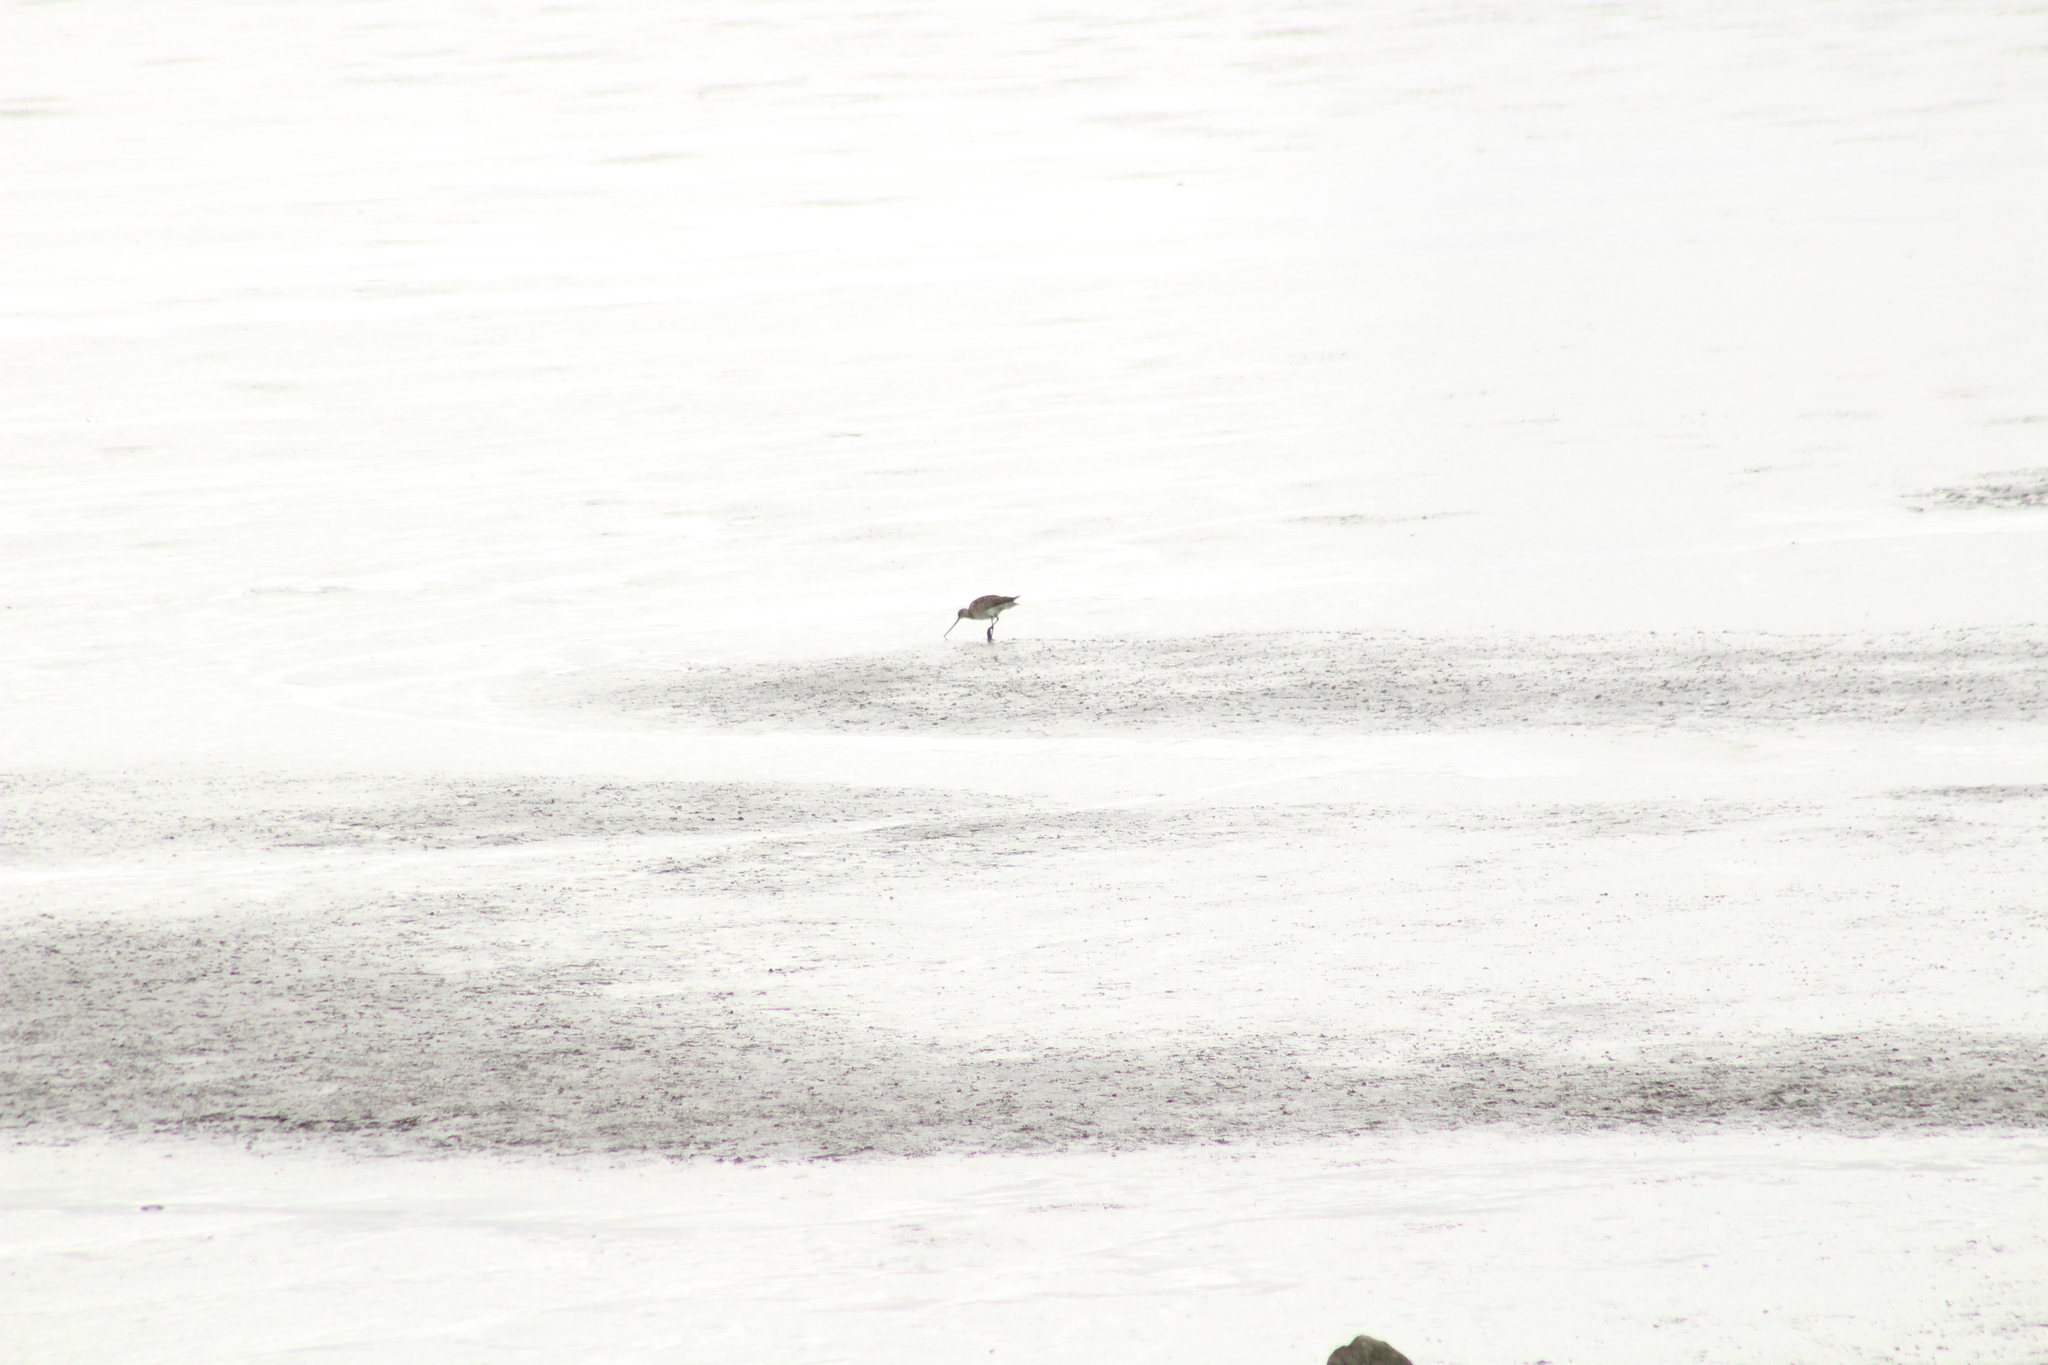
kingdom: Animalia
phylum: Chordata
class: Aves
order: Charadriiformes
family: Scolopacidae
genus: Limosa
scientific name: Limosa limosa
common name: Black-tailed godwit
